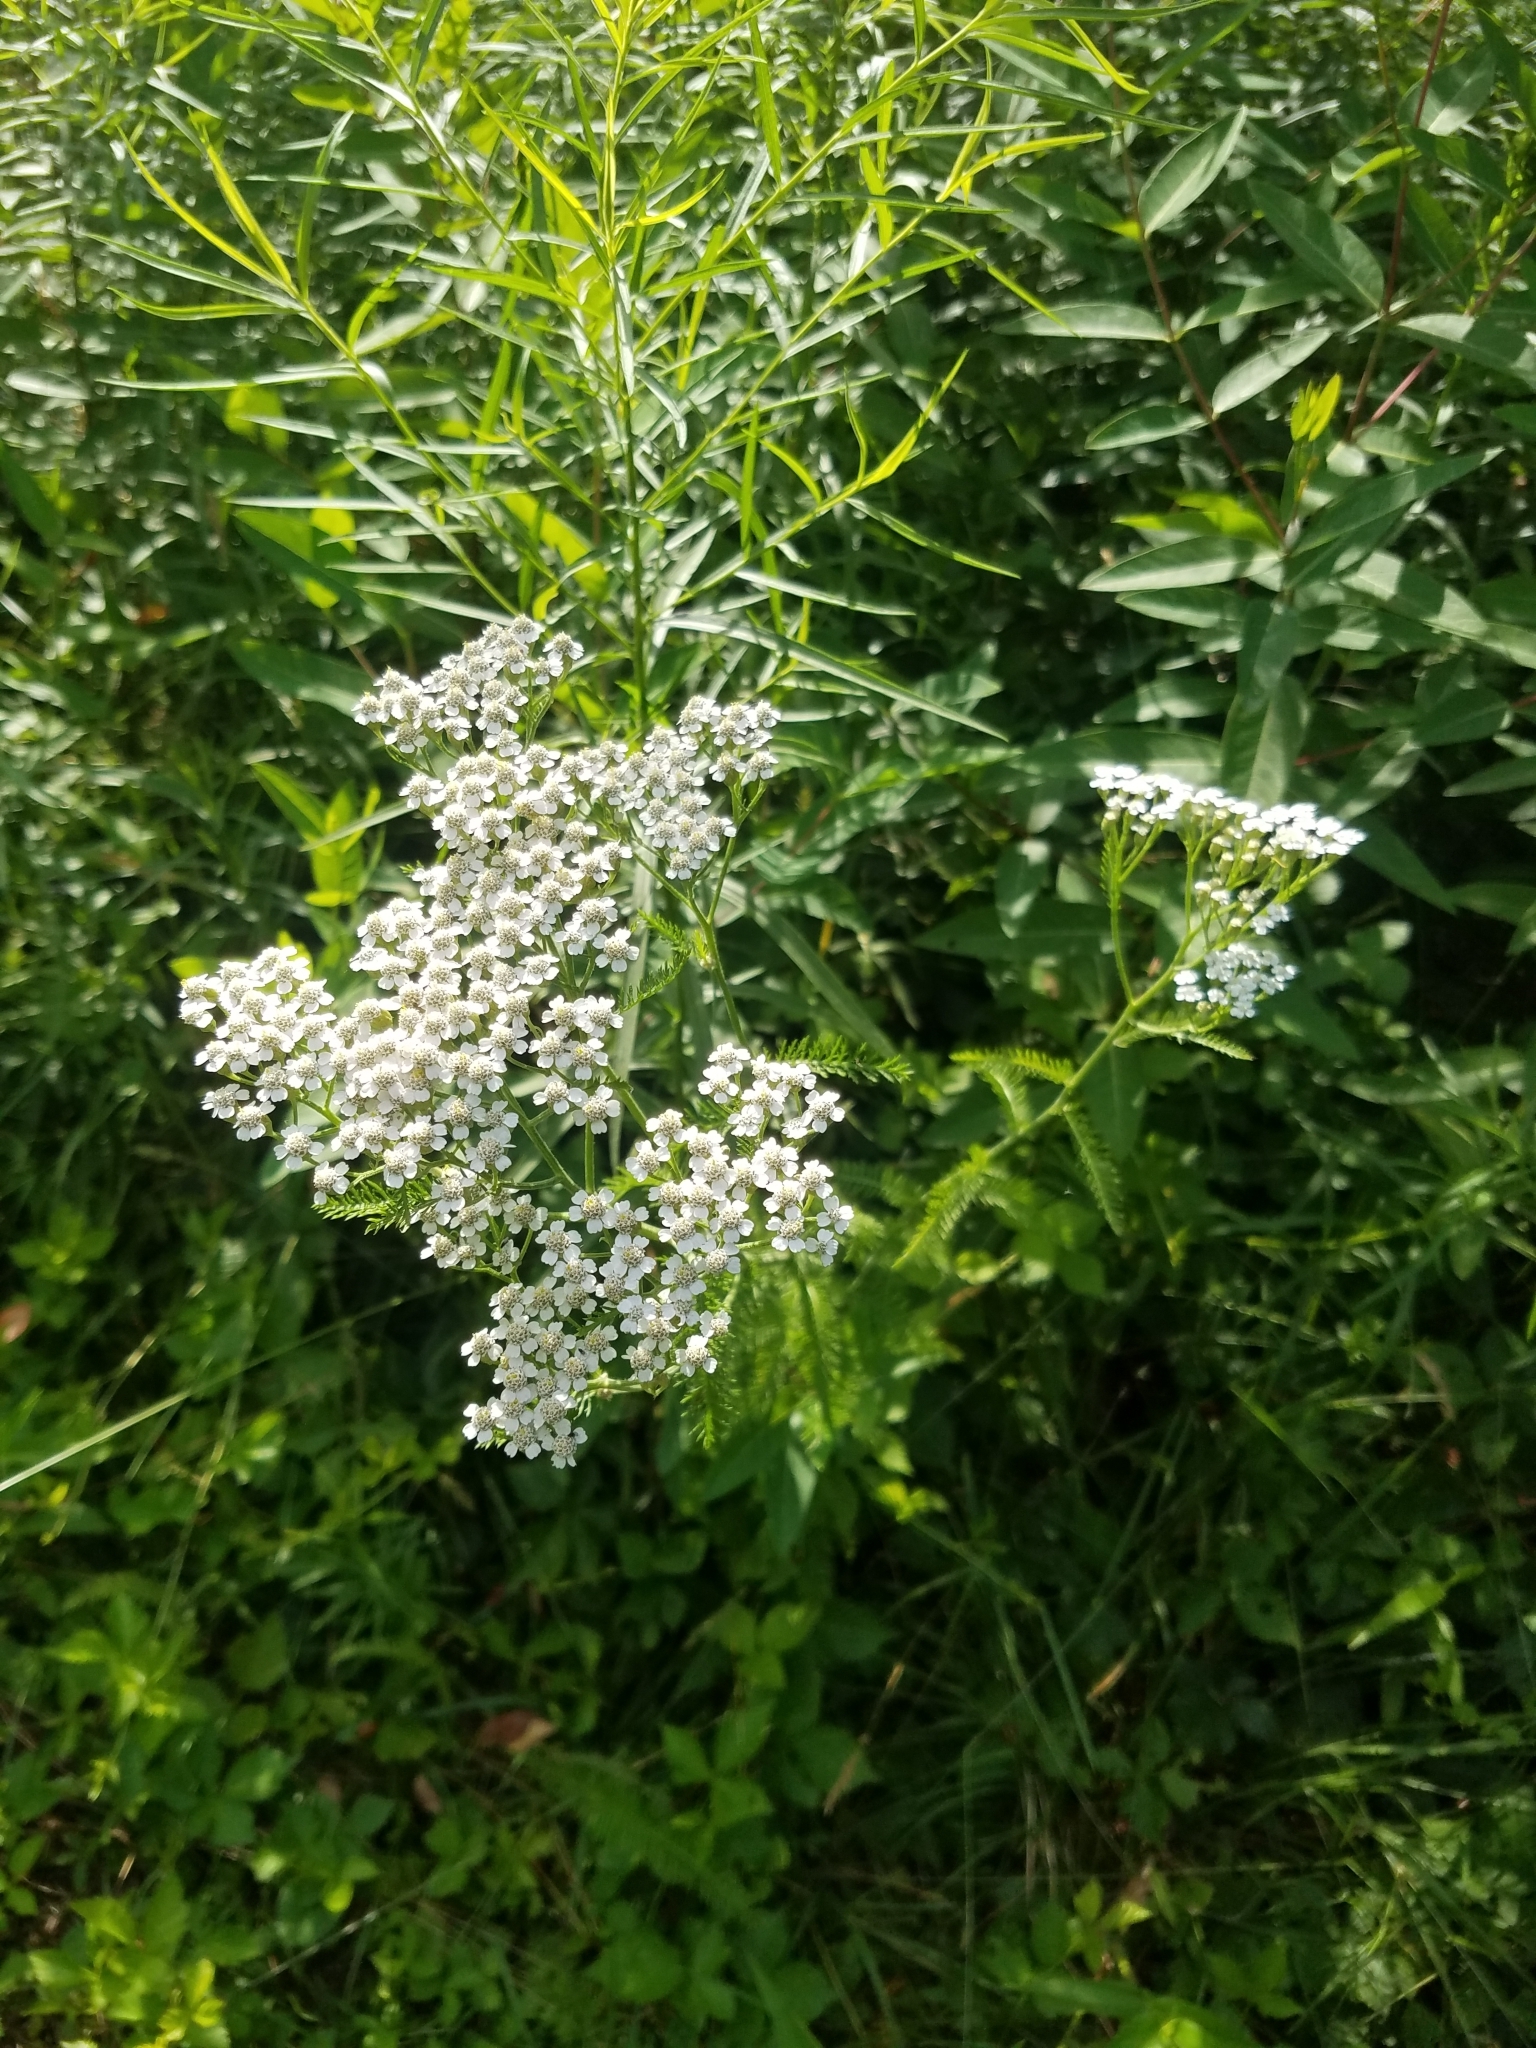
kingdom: Plantae
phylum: Tracheophyta
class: Magnoliopsida
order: Asterales
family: Asteraceae
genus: Achillea
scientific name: Achillea millefolium
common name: Yarrow
